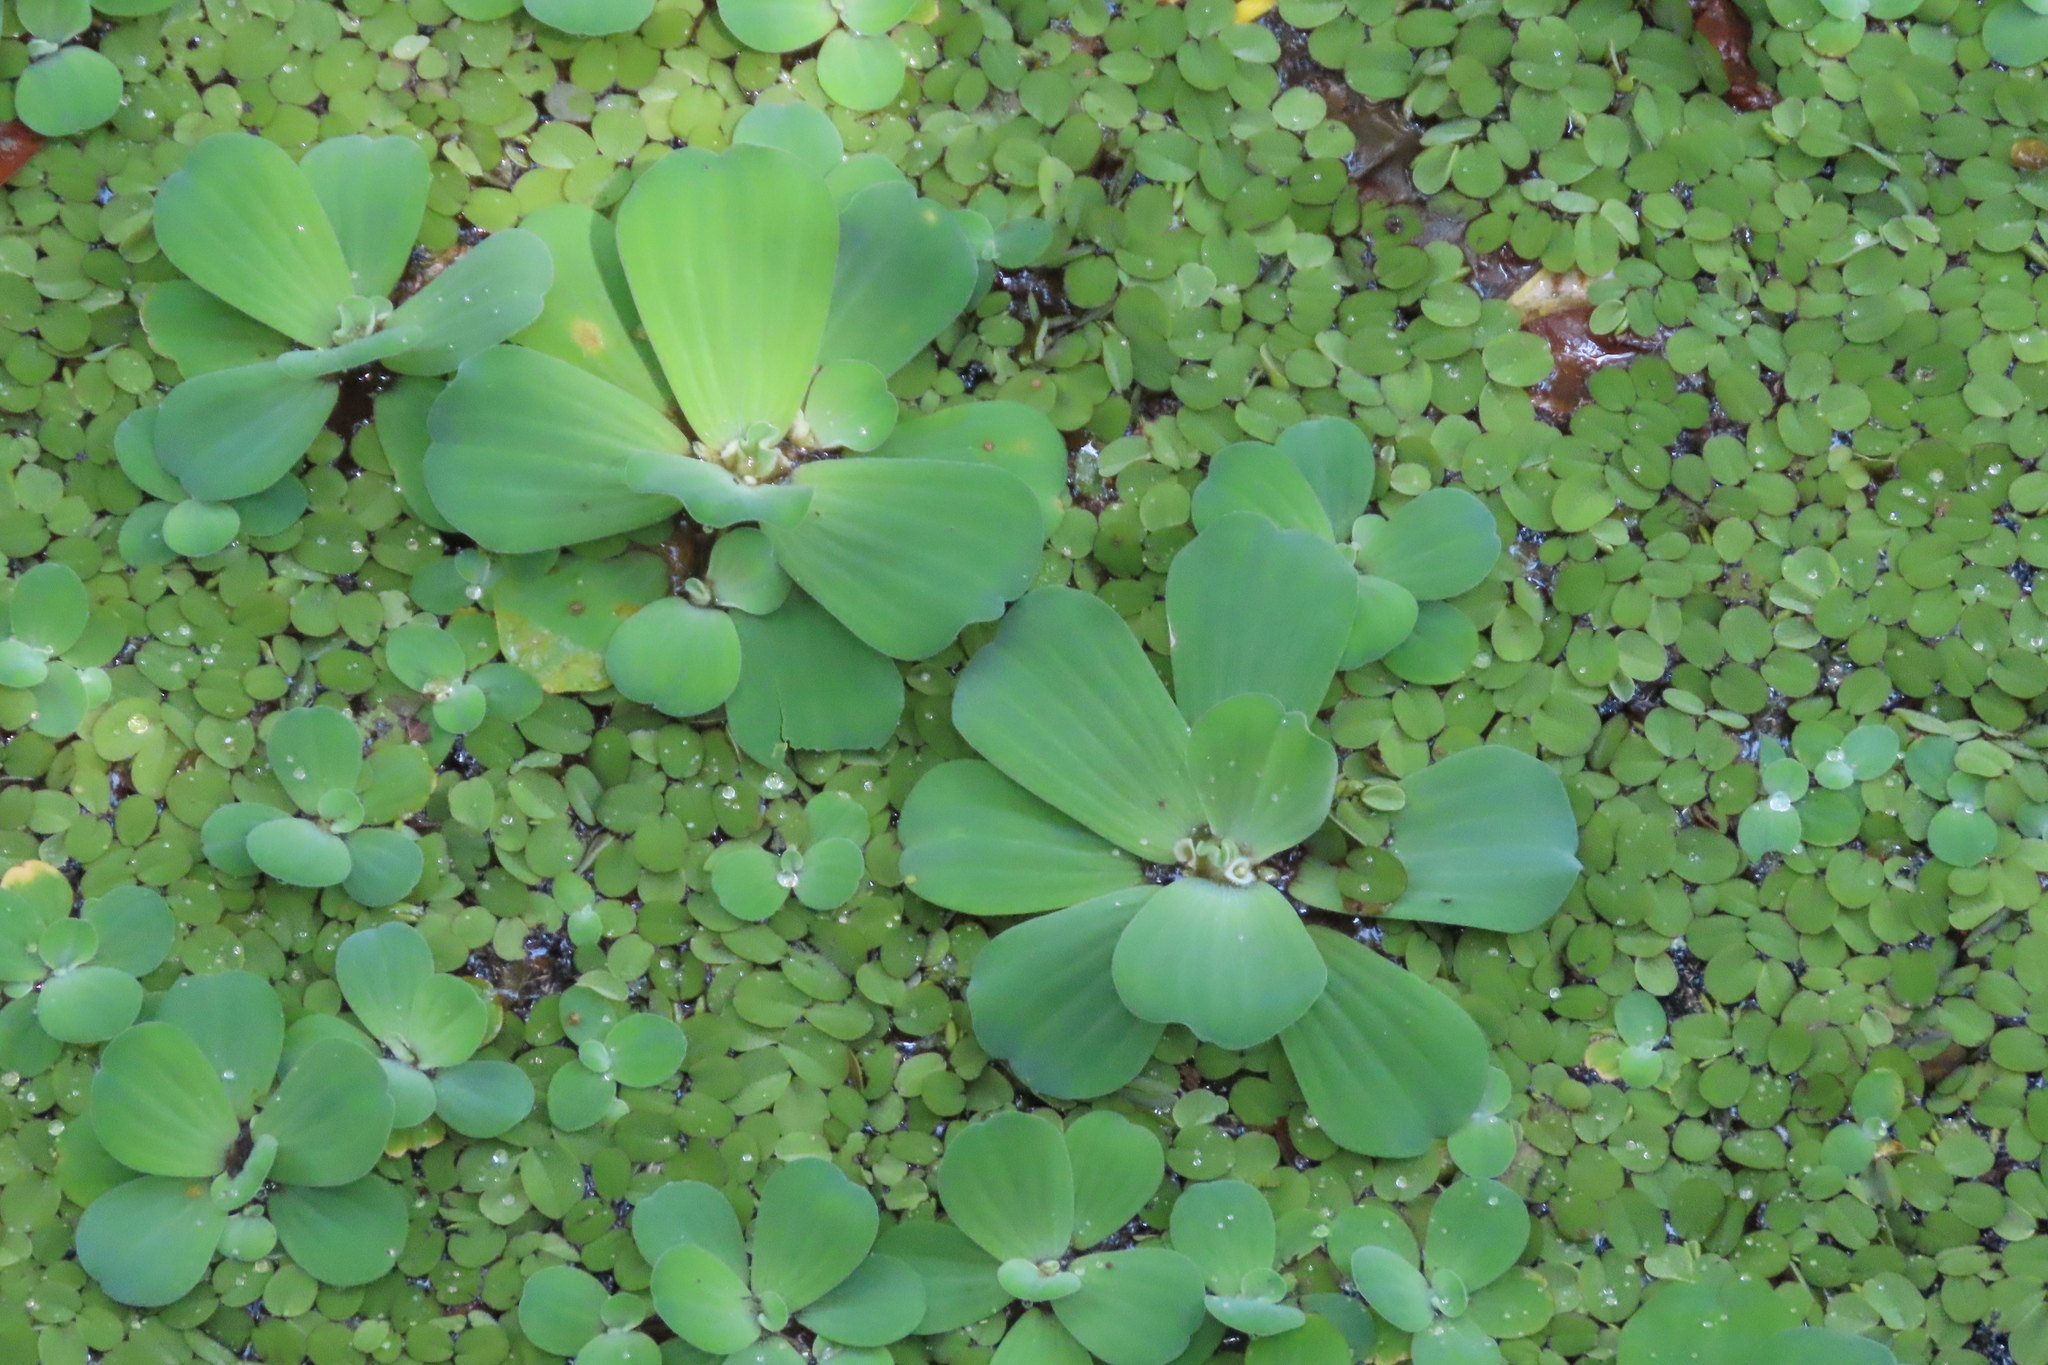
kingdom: Plantae
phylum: Tracheophyta
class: Liliopsida
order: Alismatales
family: Araceae
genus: Pistia
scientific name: Pistia stratiotes
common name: Water lettuce
